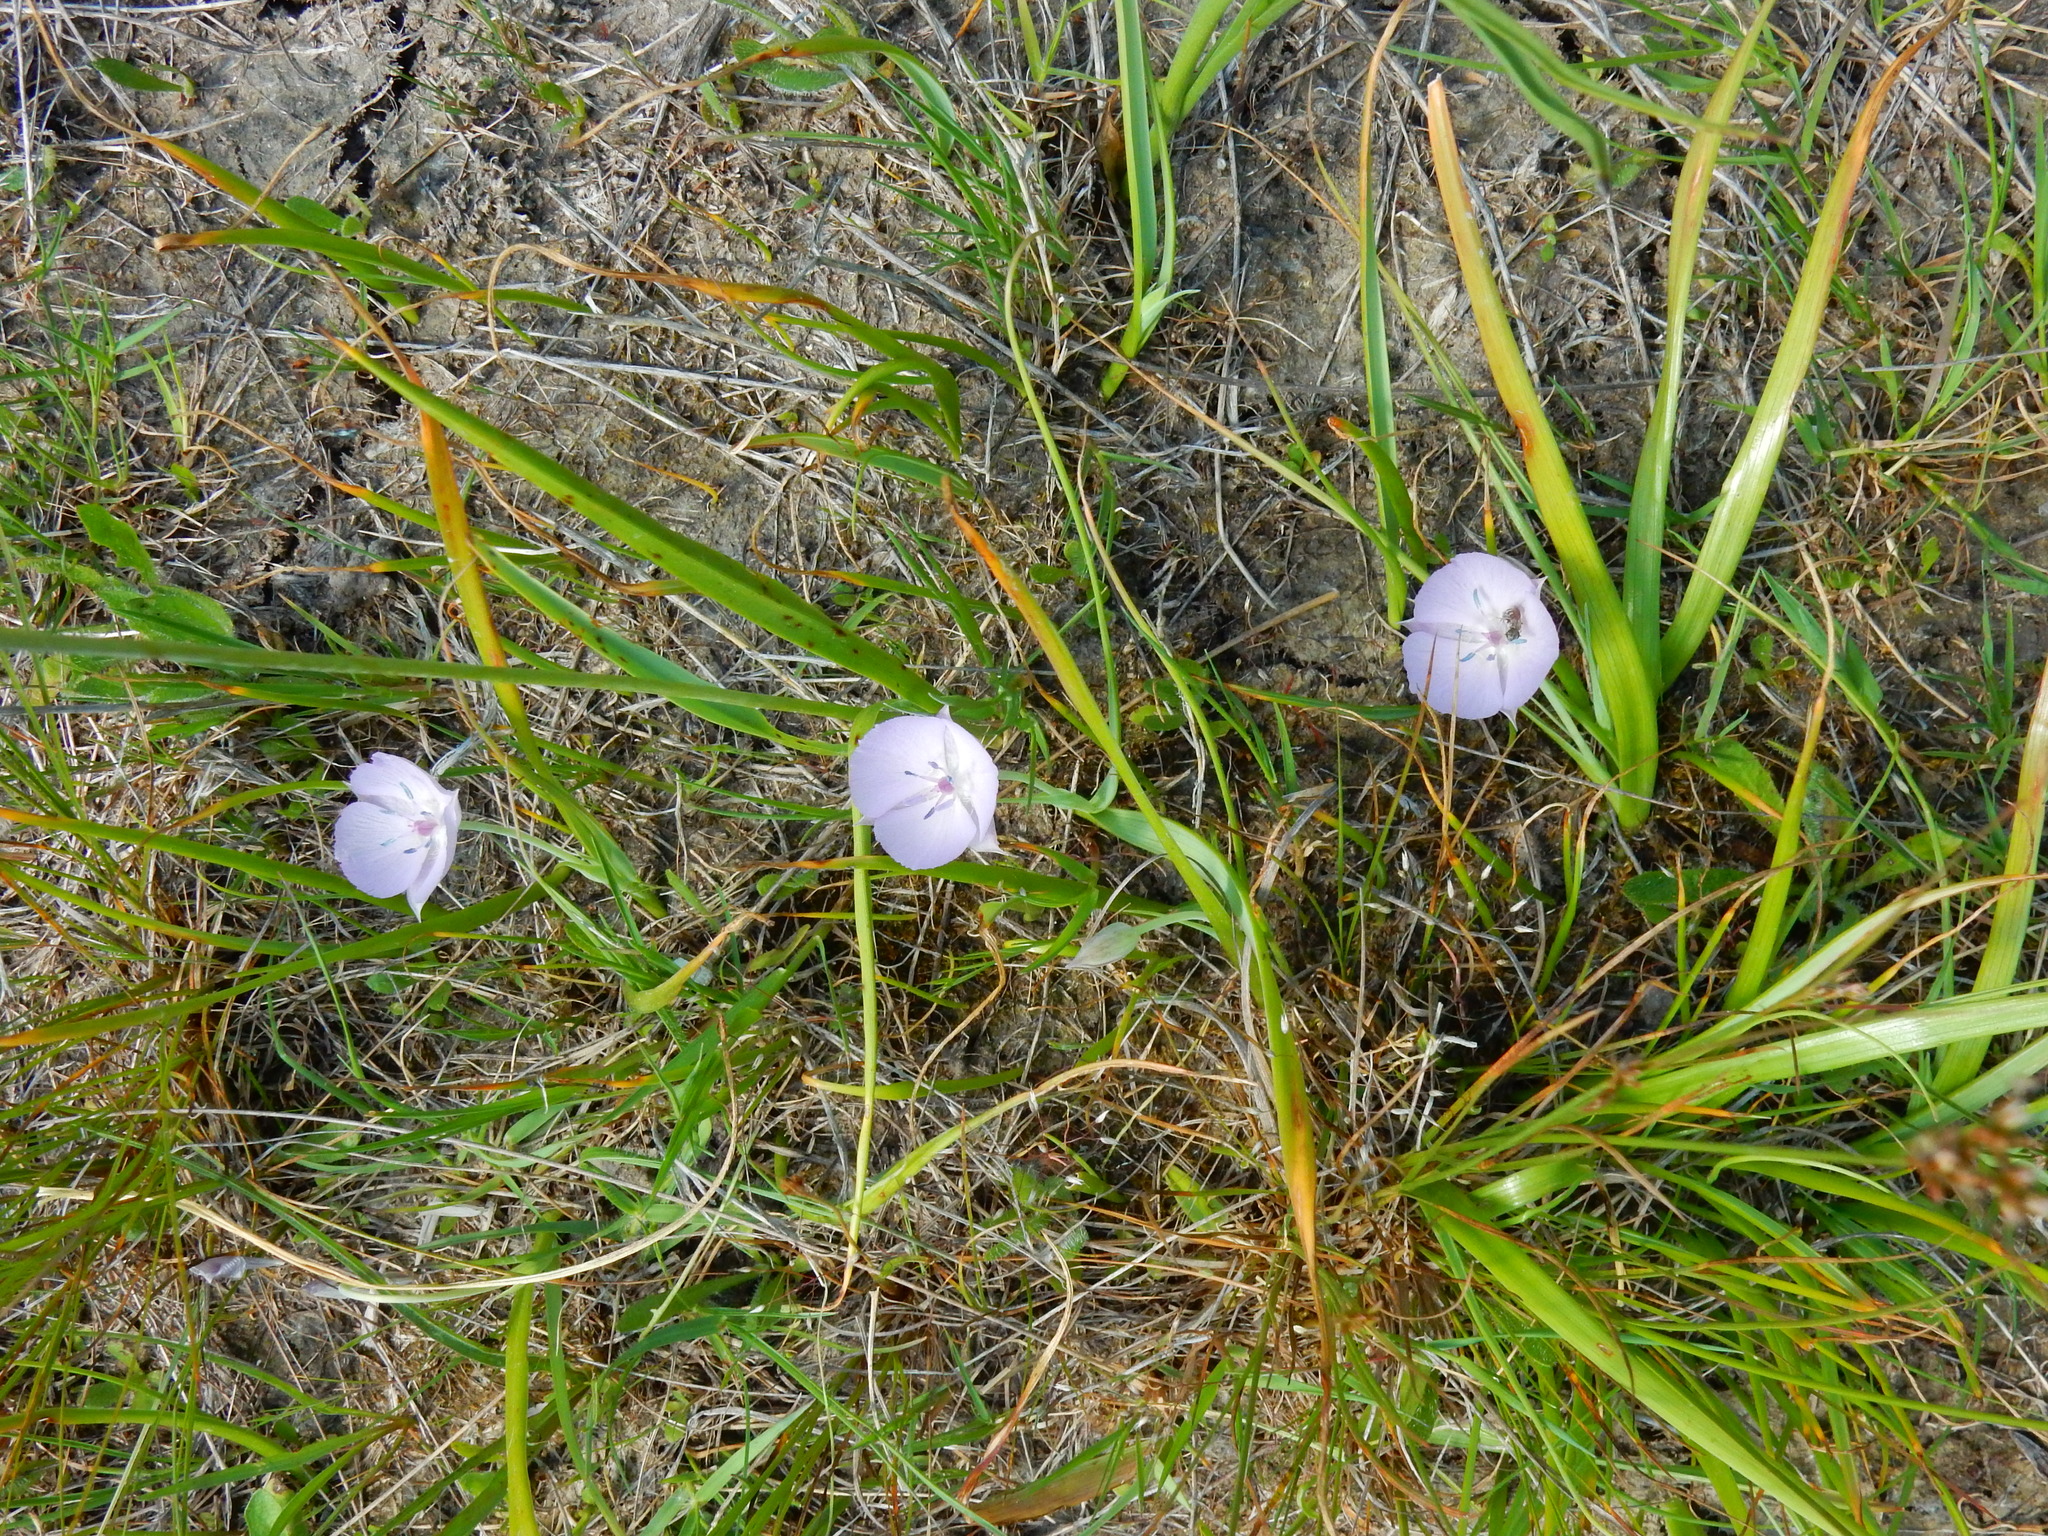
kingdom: Plantae
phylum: Tracheophyta
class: Liliopsida
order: Liliales
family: Liliaceae
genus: Calochortus
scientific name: Calochortus uniflorus
